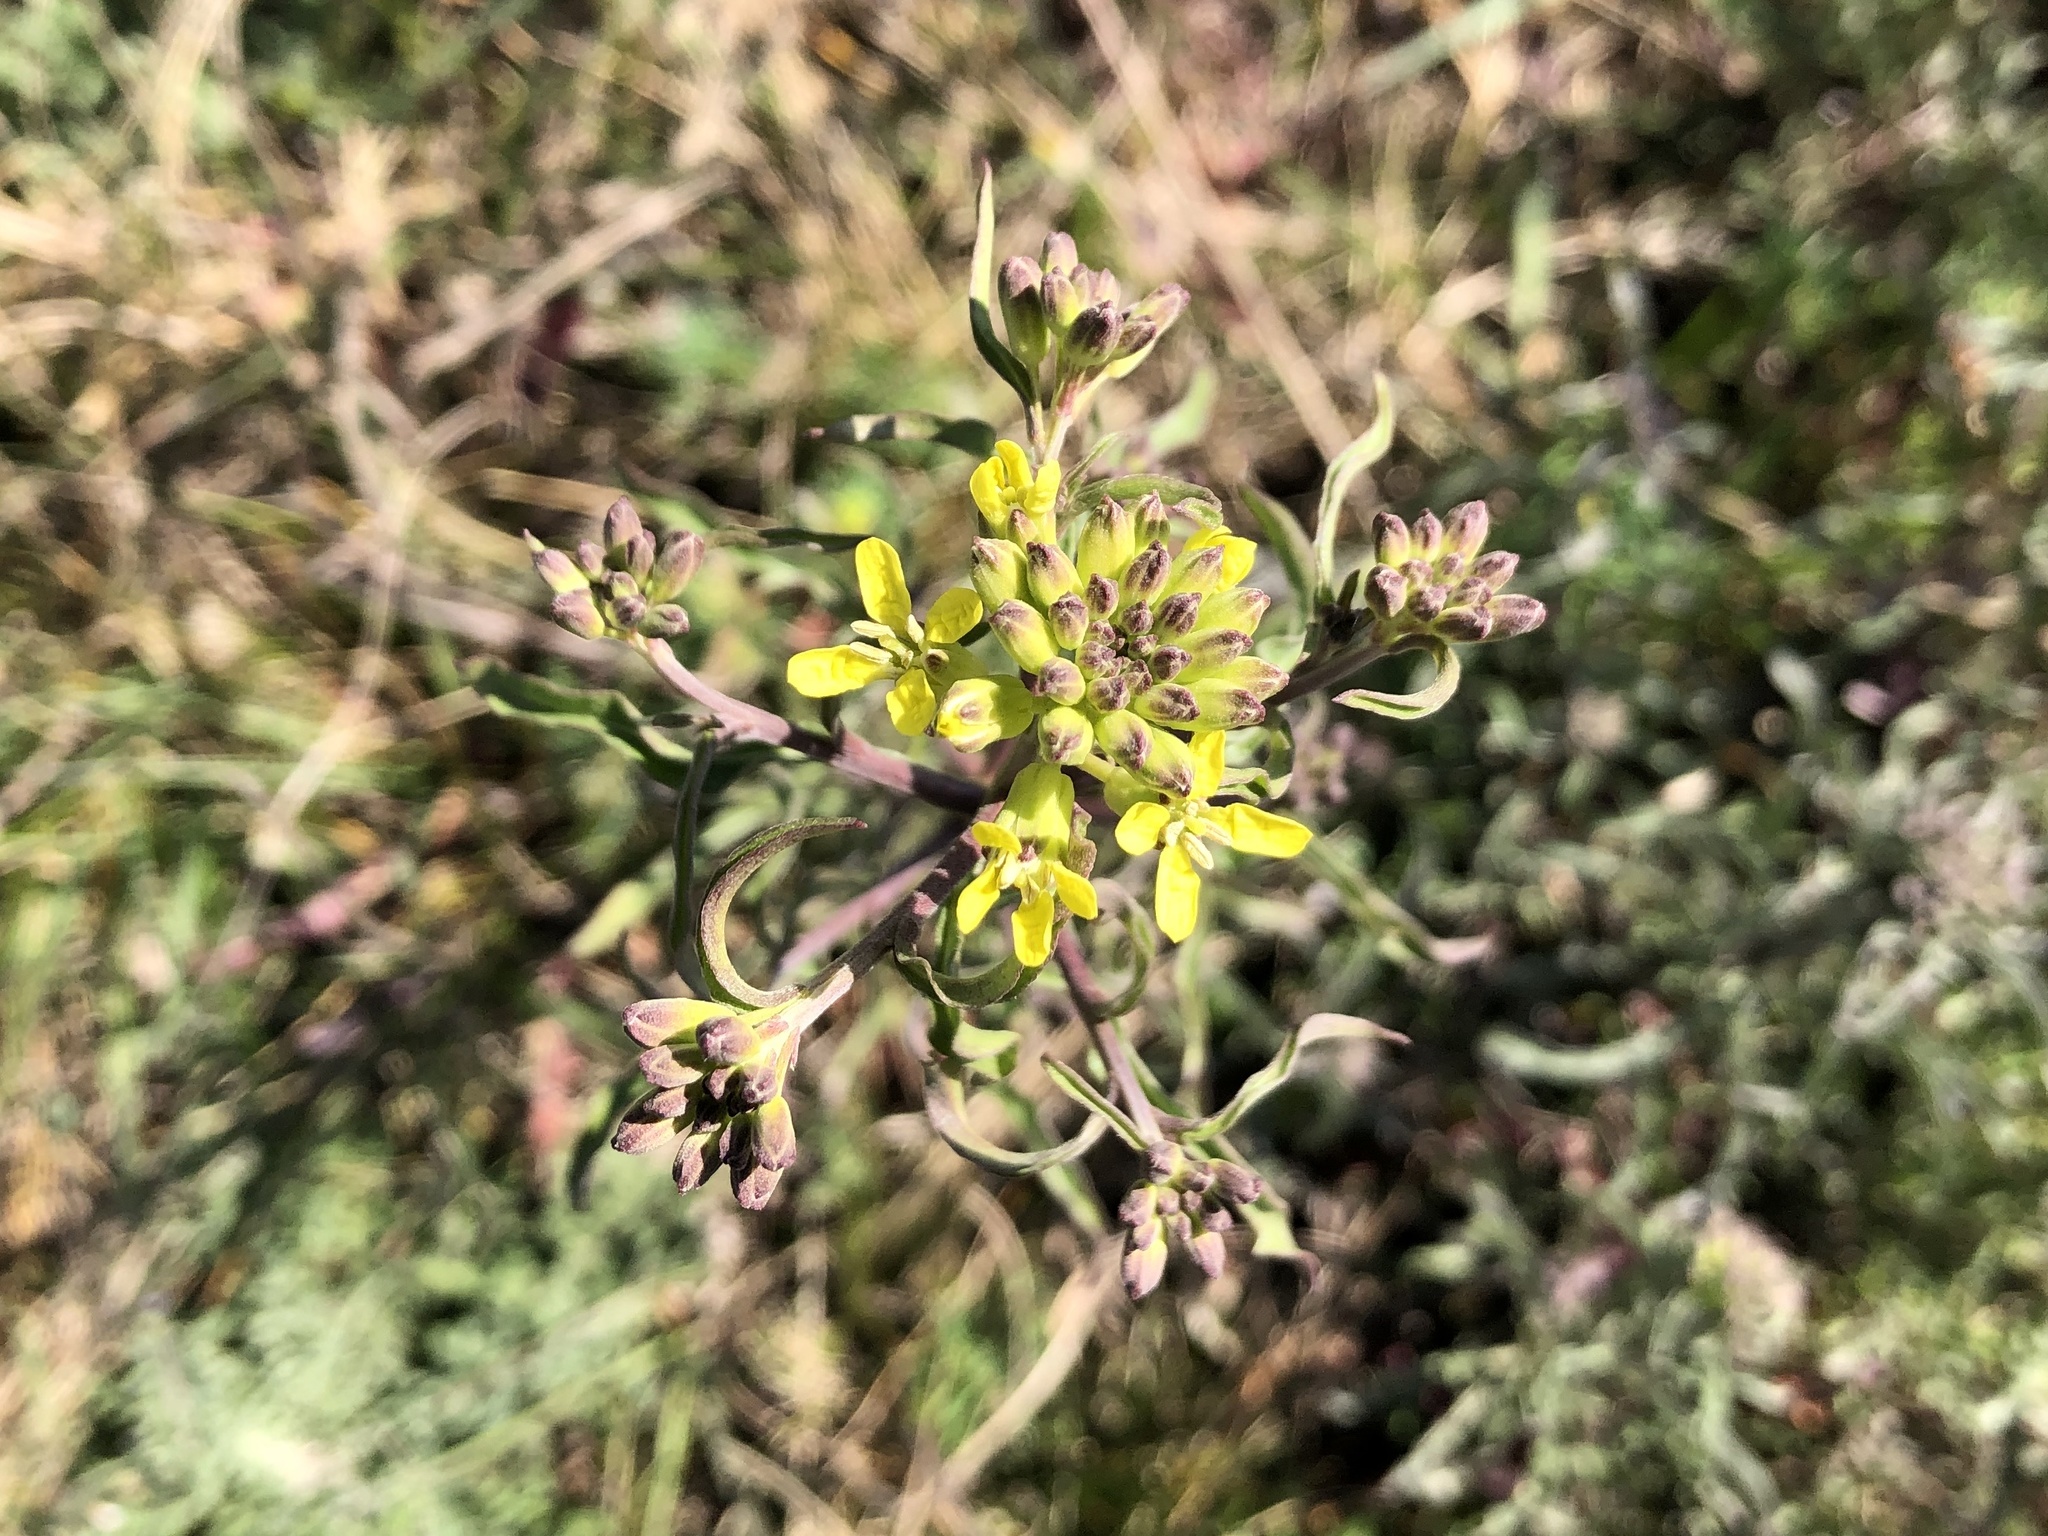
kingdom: Plantae
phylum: Tracheophyta
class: Magnoliopsida
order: Brassicales
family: Brassicaceae
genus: Erysimum
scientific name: Erysimum crepidifolium
